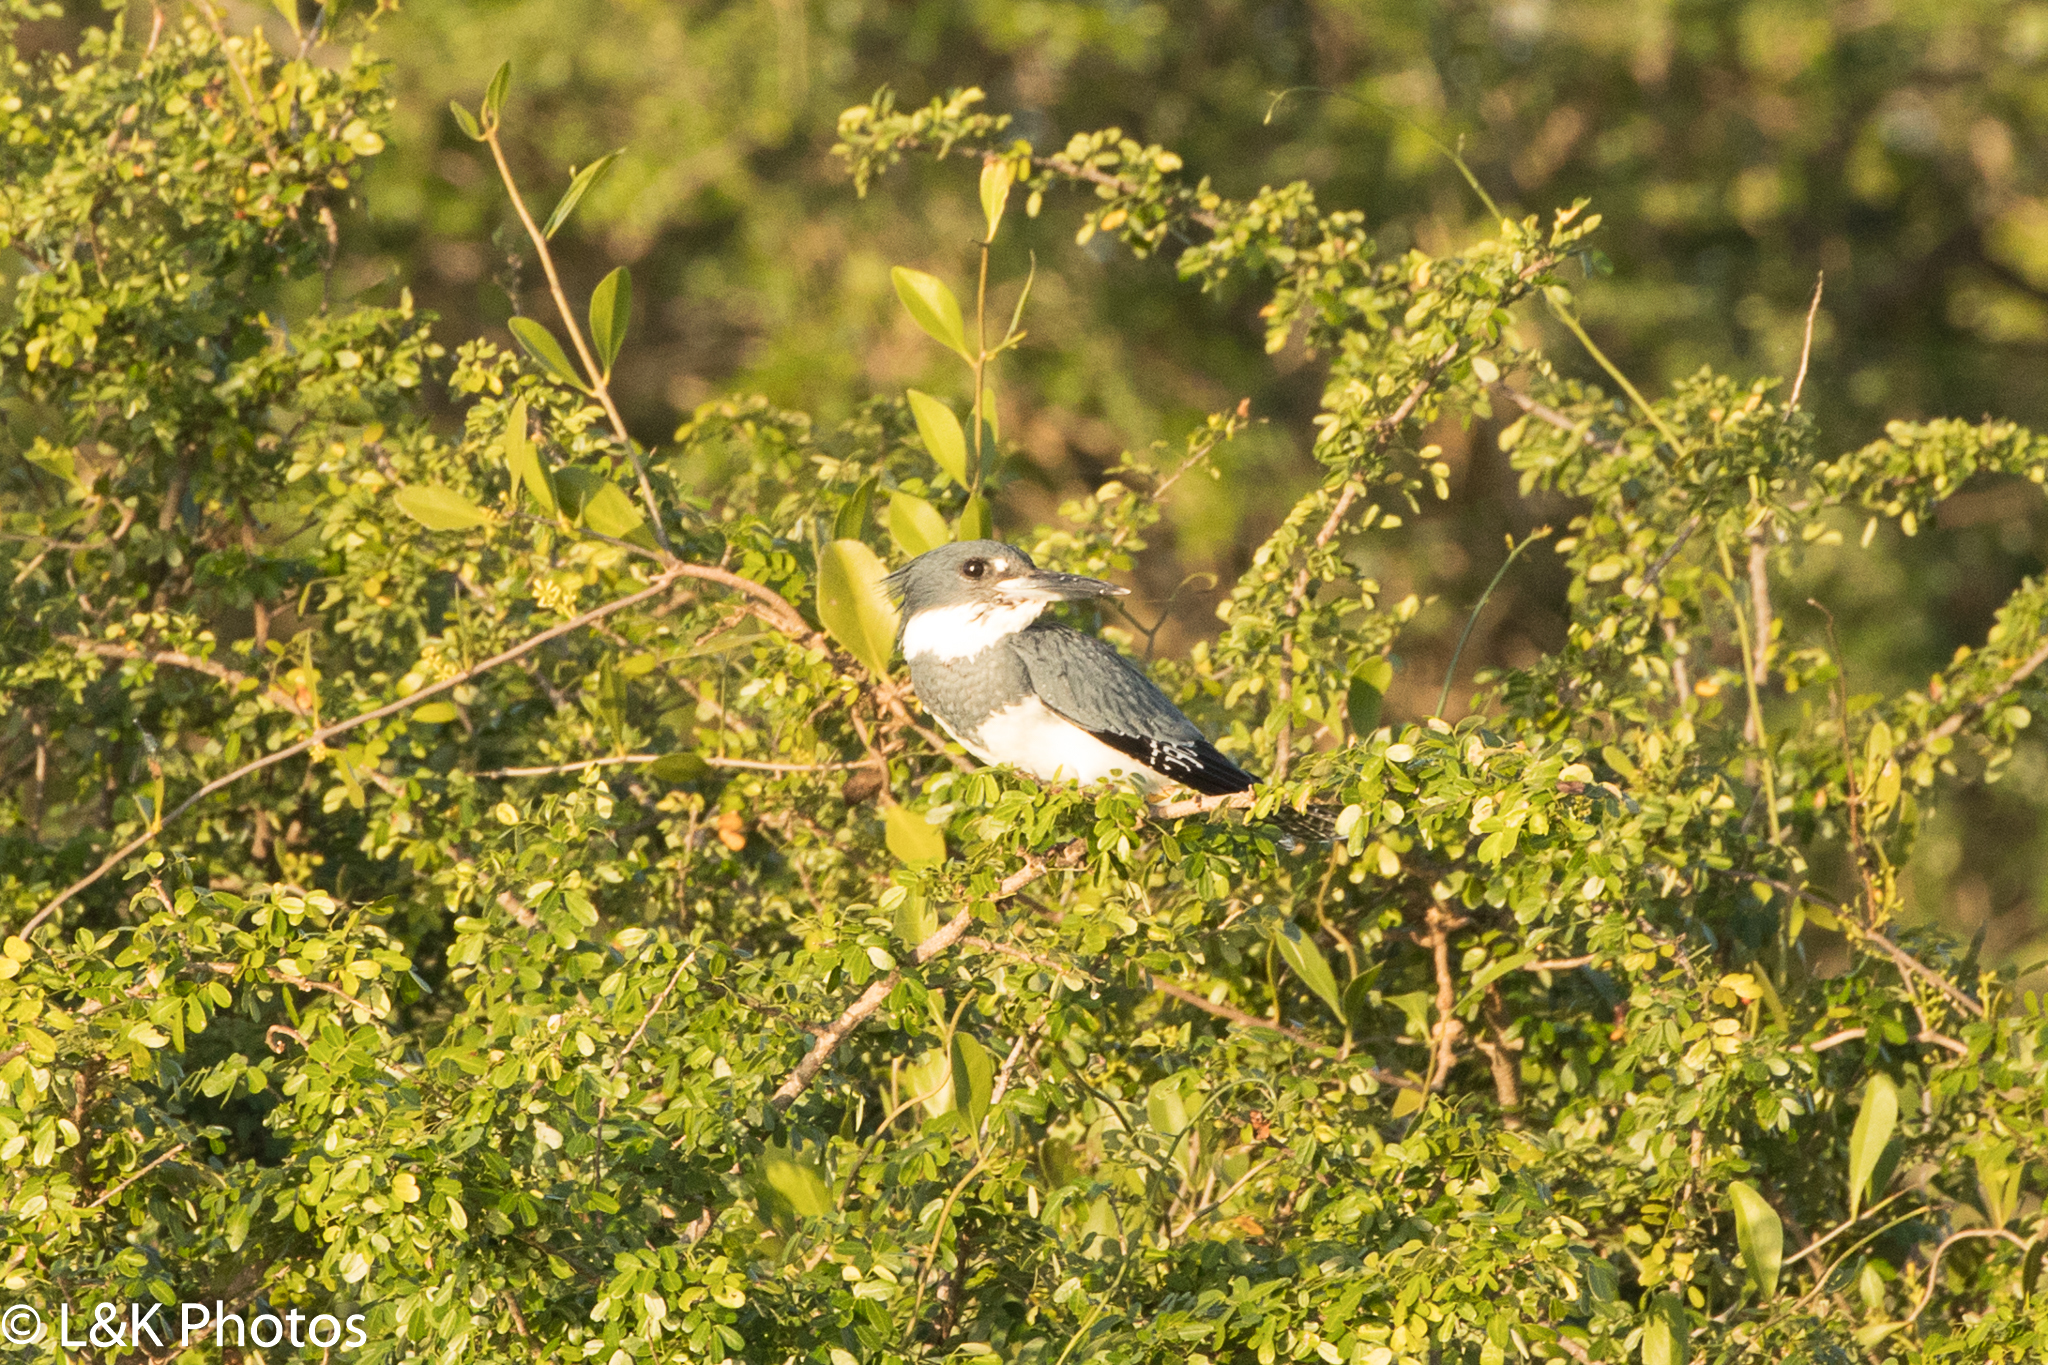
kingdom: Animalia
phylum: Chordata
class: Aves
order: Coraciiformes
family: Alcedinidae
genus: Megaceryle
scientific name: Megaceryle alcyon
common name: Belted kingfisher
